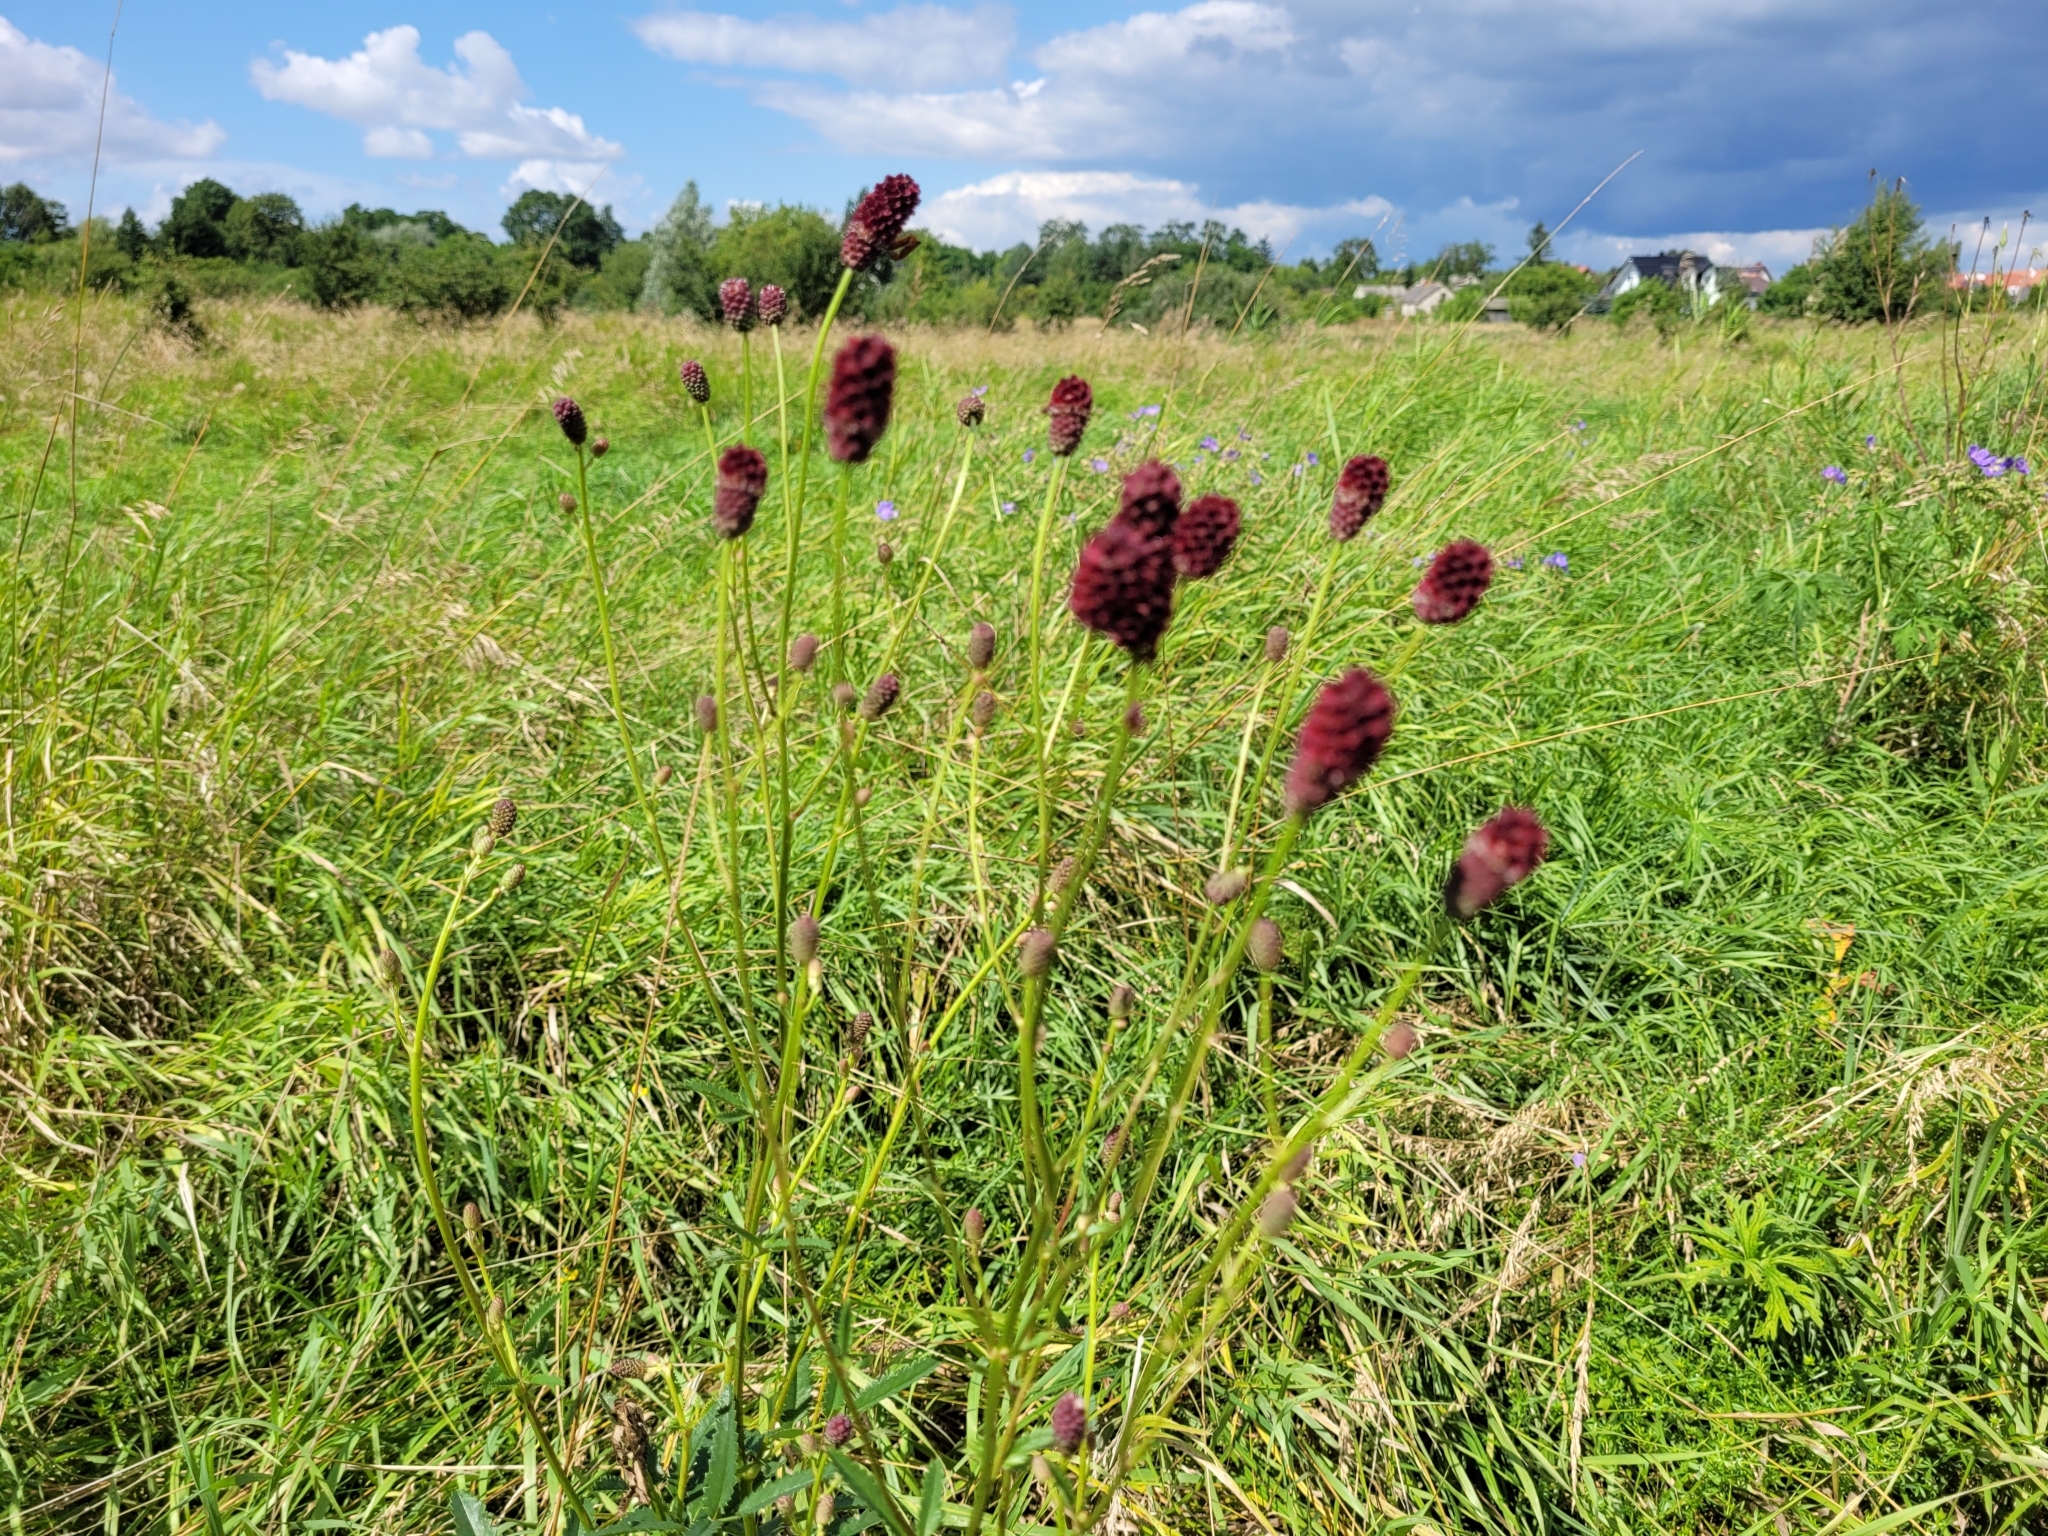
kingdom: Plantae
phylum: Tracheophyta
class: Magnoliopsida
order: Rosales
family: Rosaceae
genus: Sanguisorba
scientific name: Sanguisorba officinalis
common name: Great burnet
